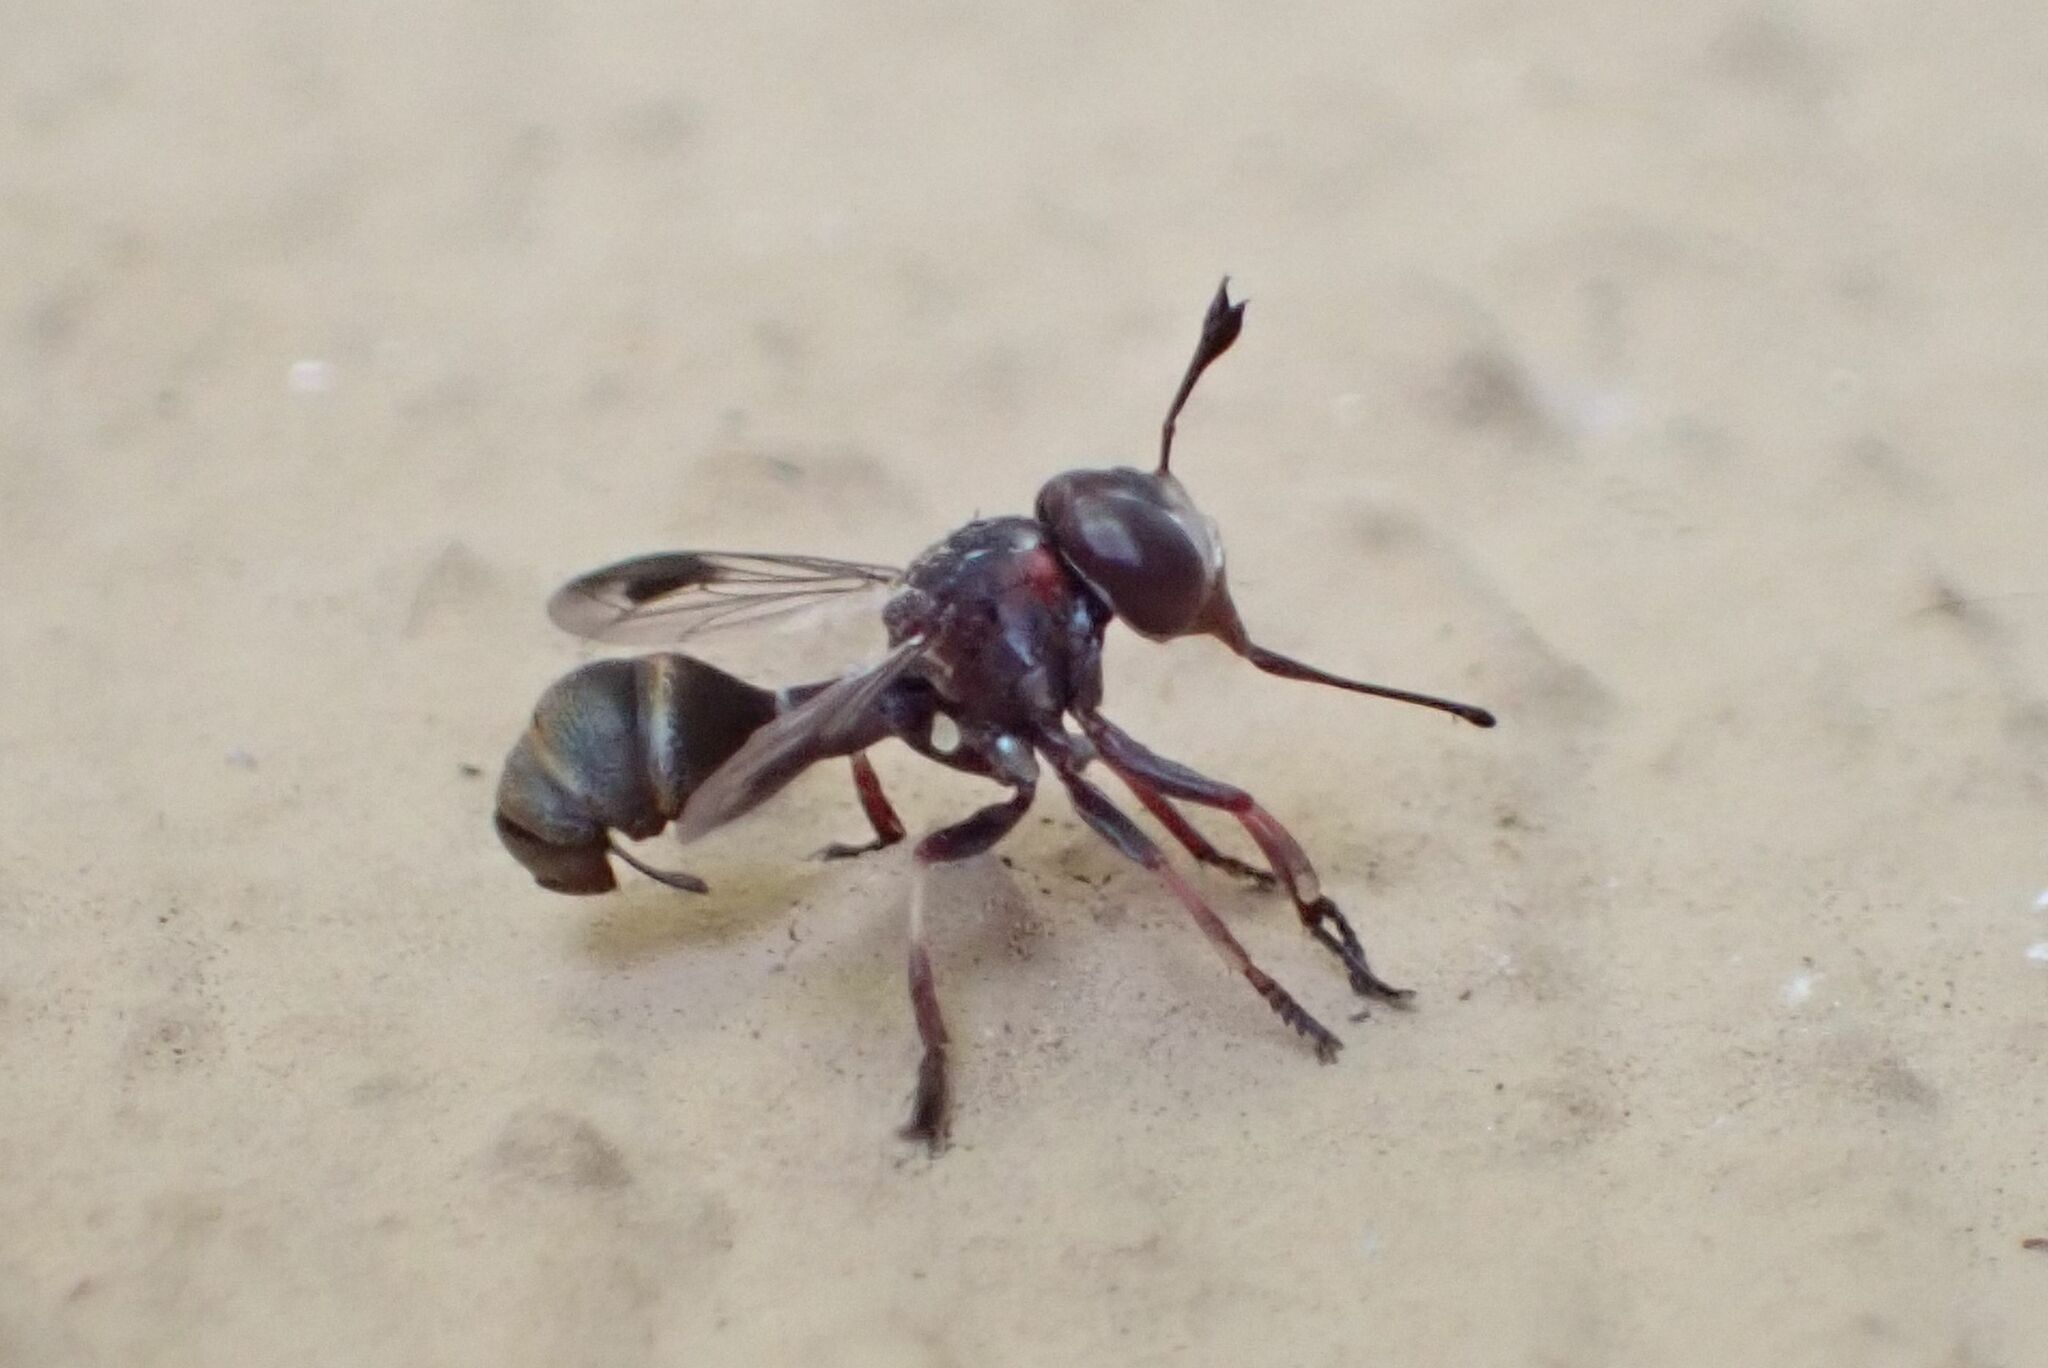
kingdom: Animalia
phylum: Arthropoda
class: Insecta
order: Diptera
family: Conopidae
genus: Physocephala
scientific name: Physocephala vittata
